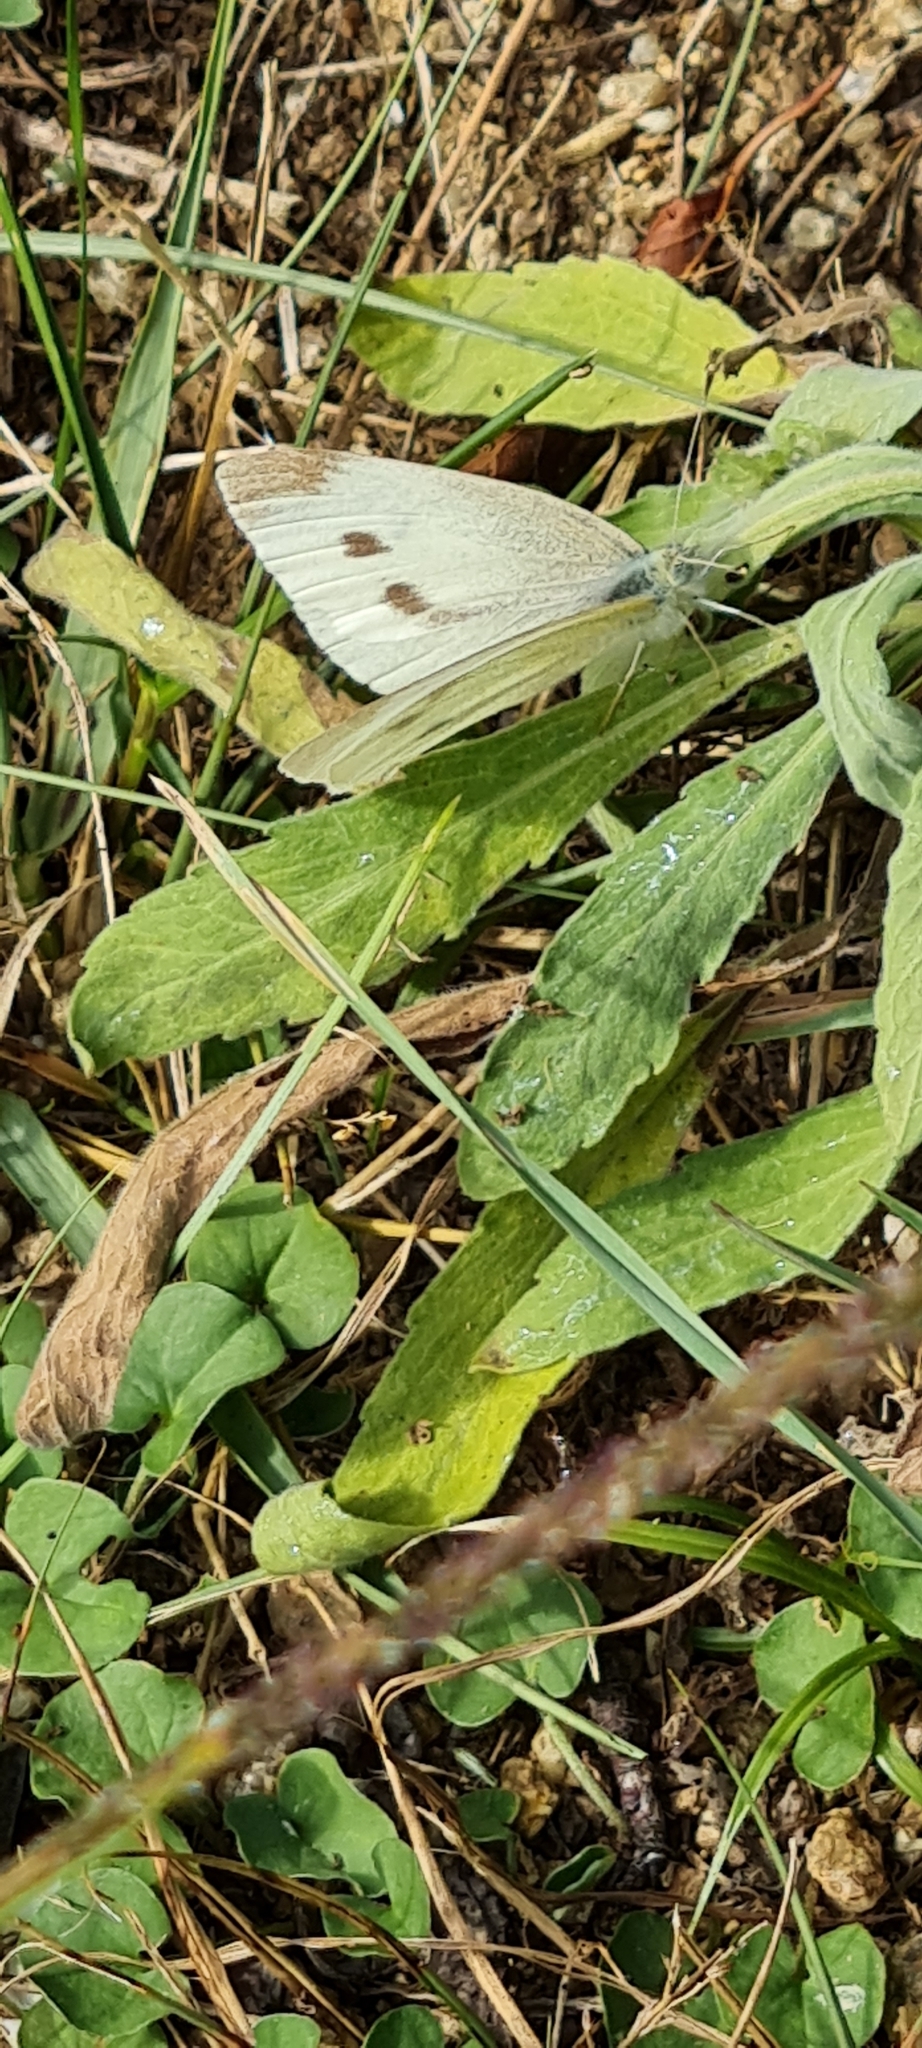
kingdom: Animalia
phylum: Arthropoda
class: Insecta
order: Lepidoptera
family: Pieridae
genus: Pieris
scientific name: Pieris rapae
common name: Small white
